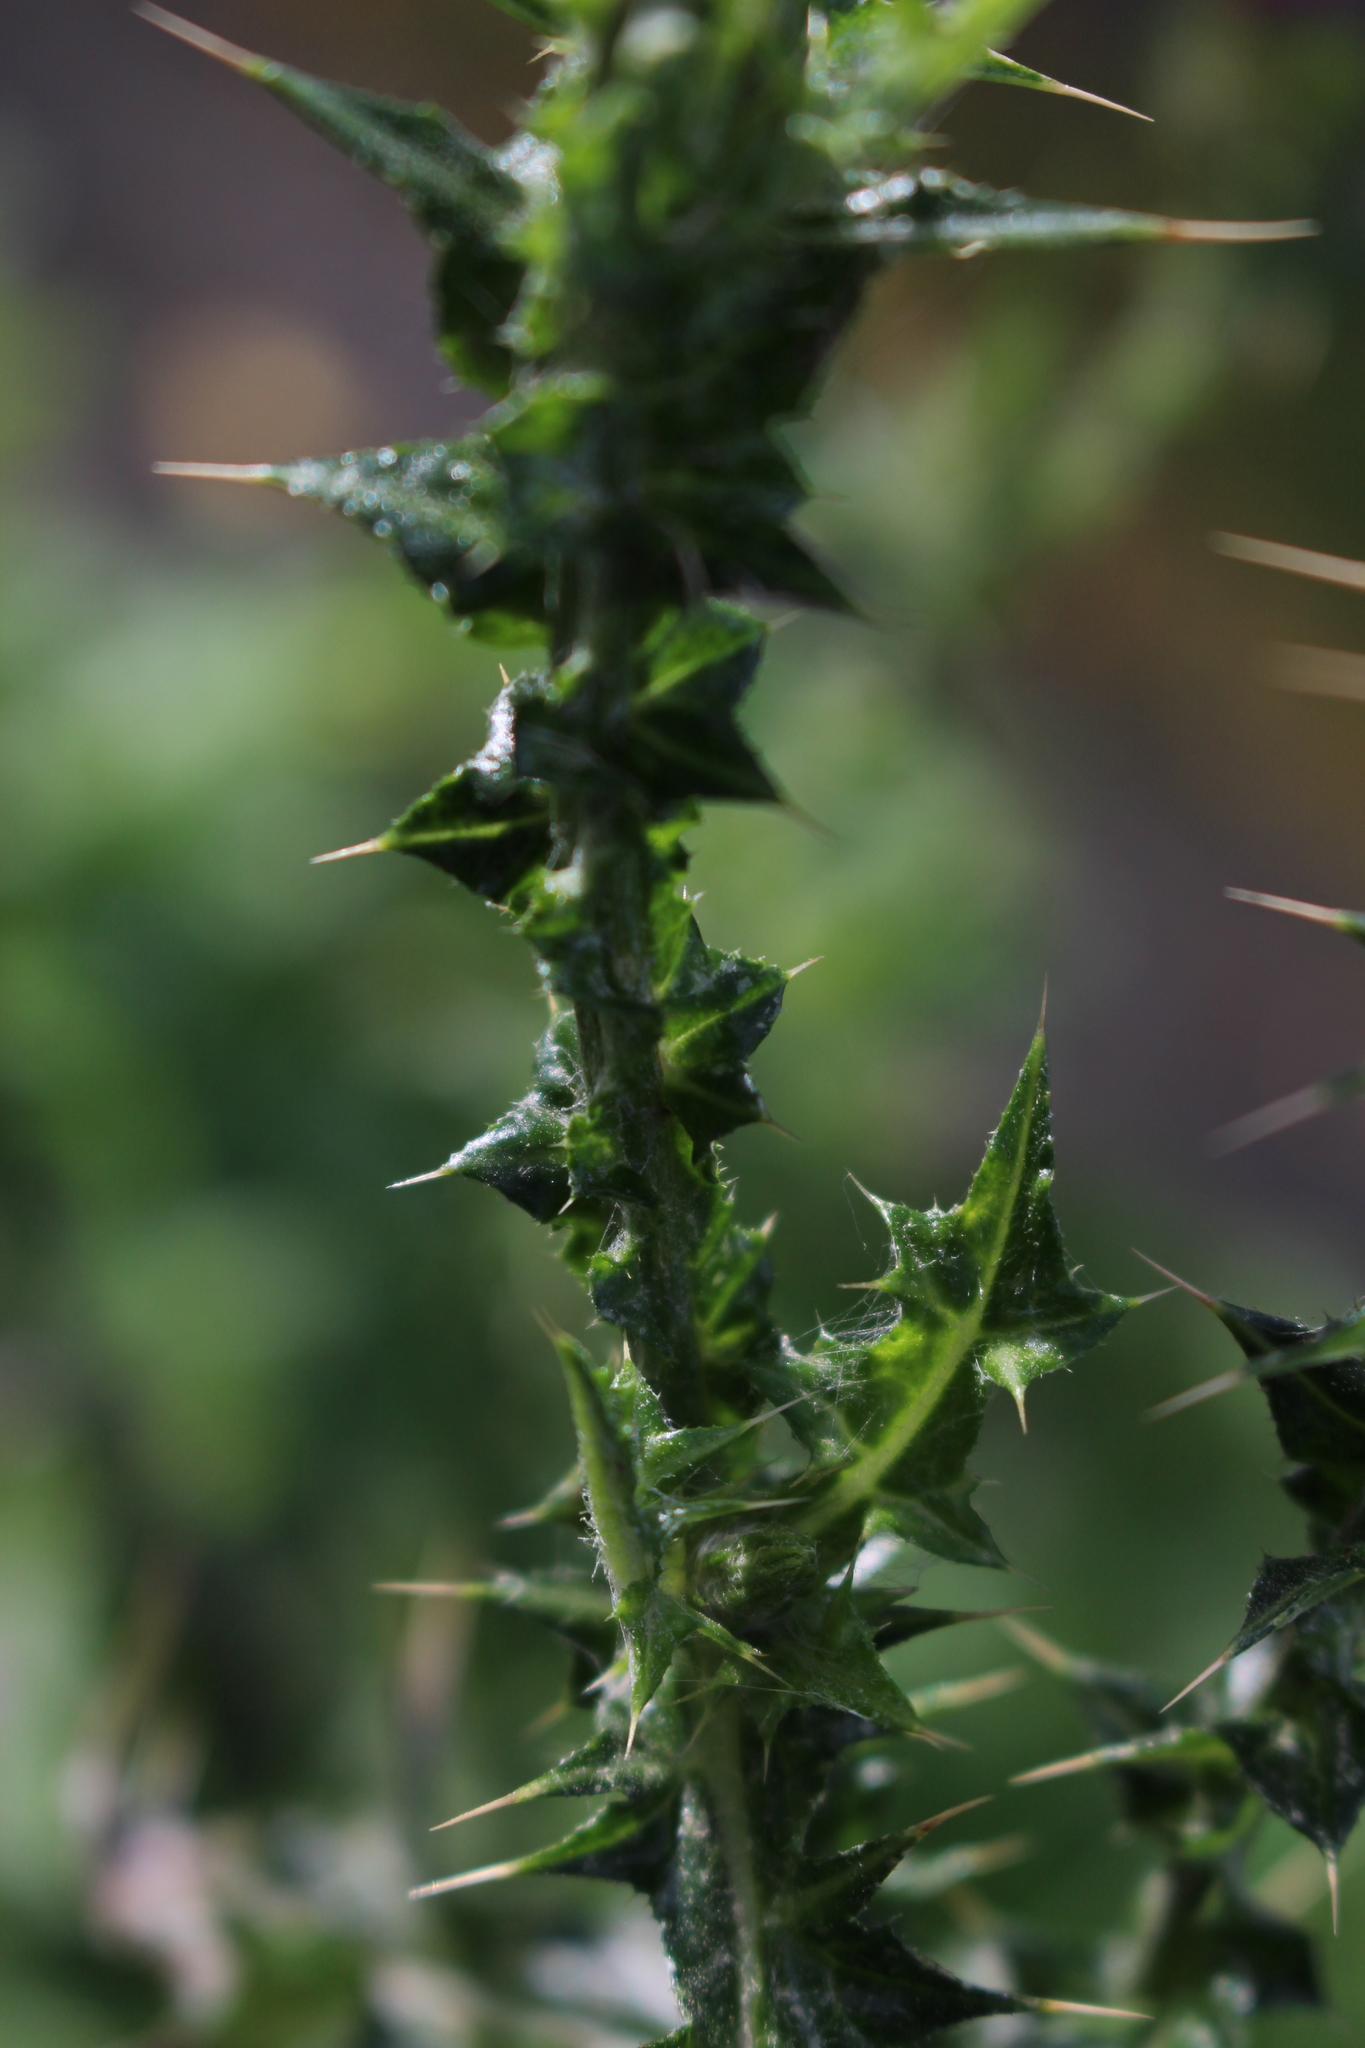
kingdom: Plantae
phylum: Tracheophyta
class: Magnoliopsida
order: Asterales
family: Asteraceae
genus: Carduus
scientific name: Carduus tenuiflorus
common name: Slender thistle
